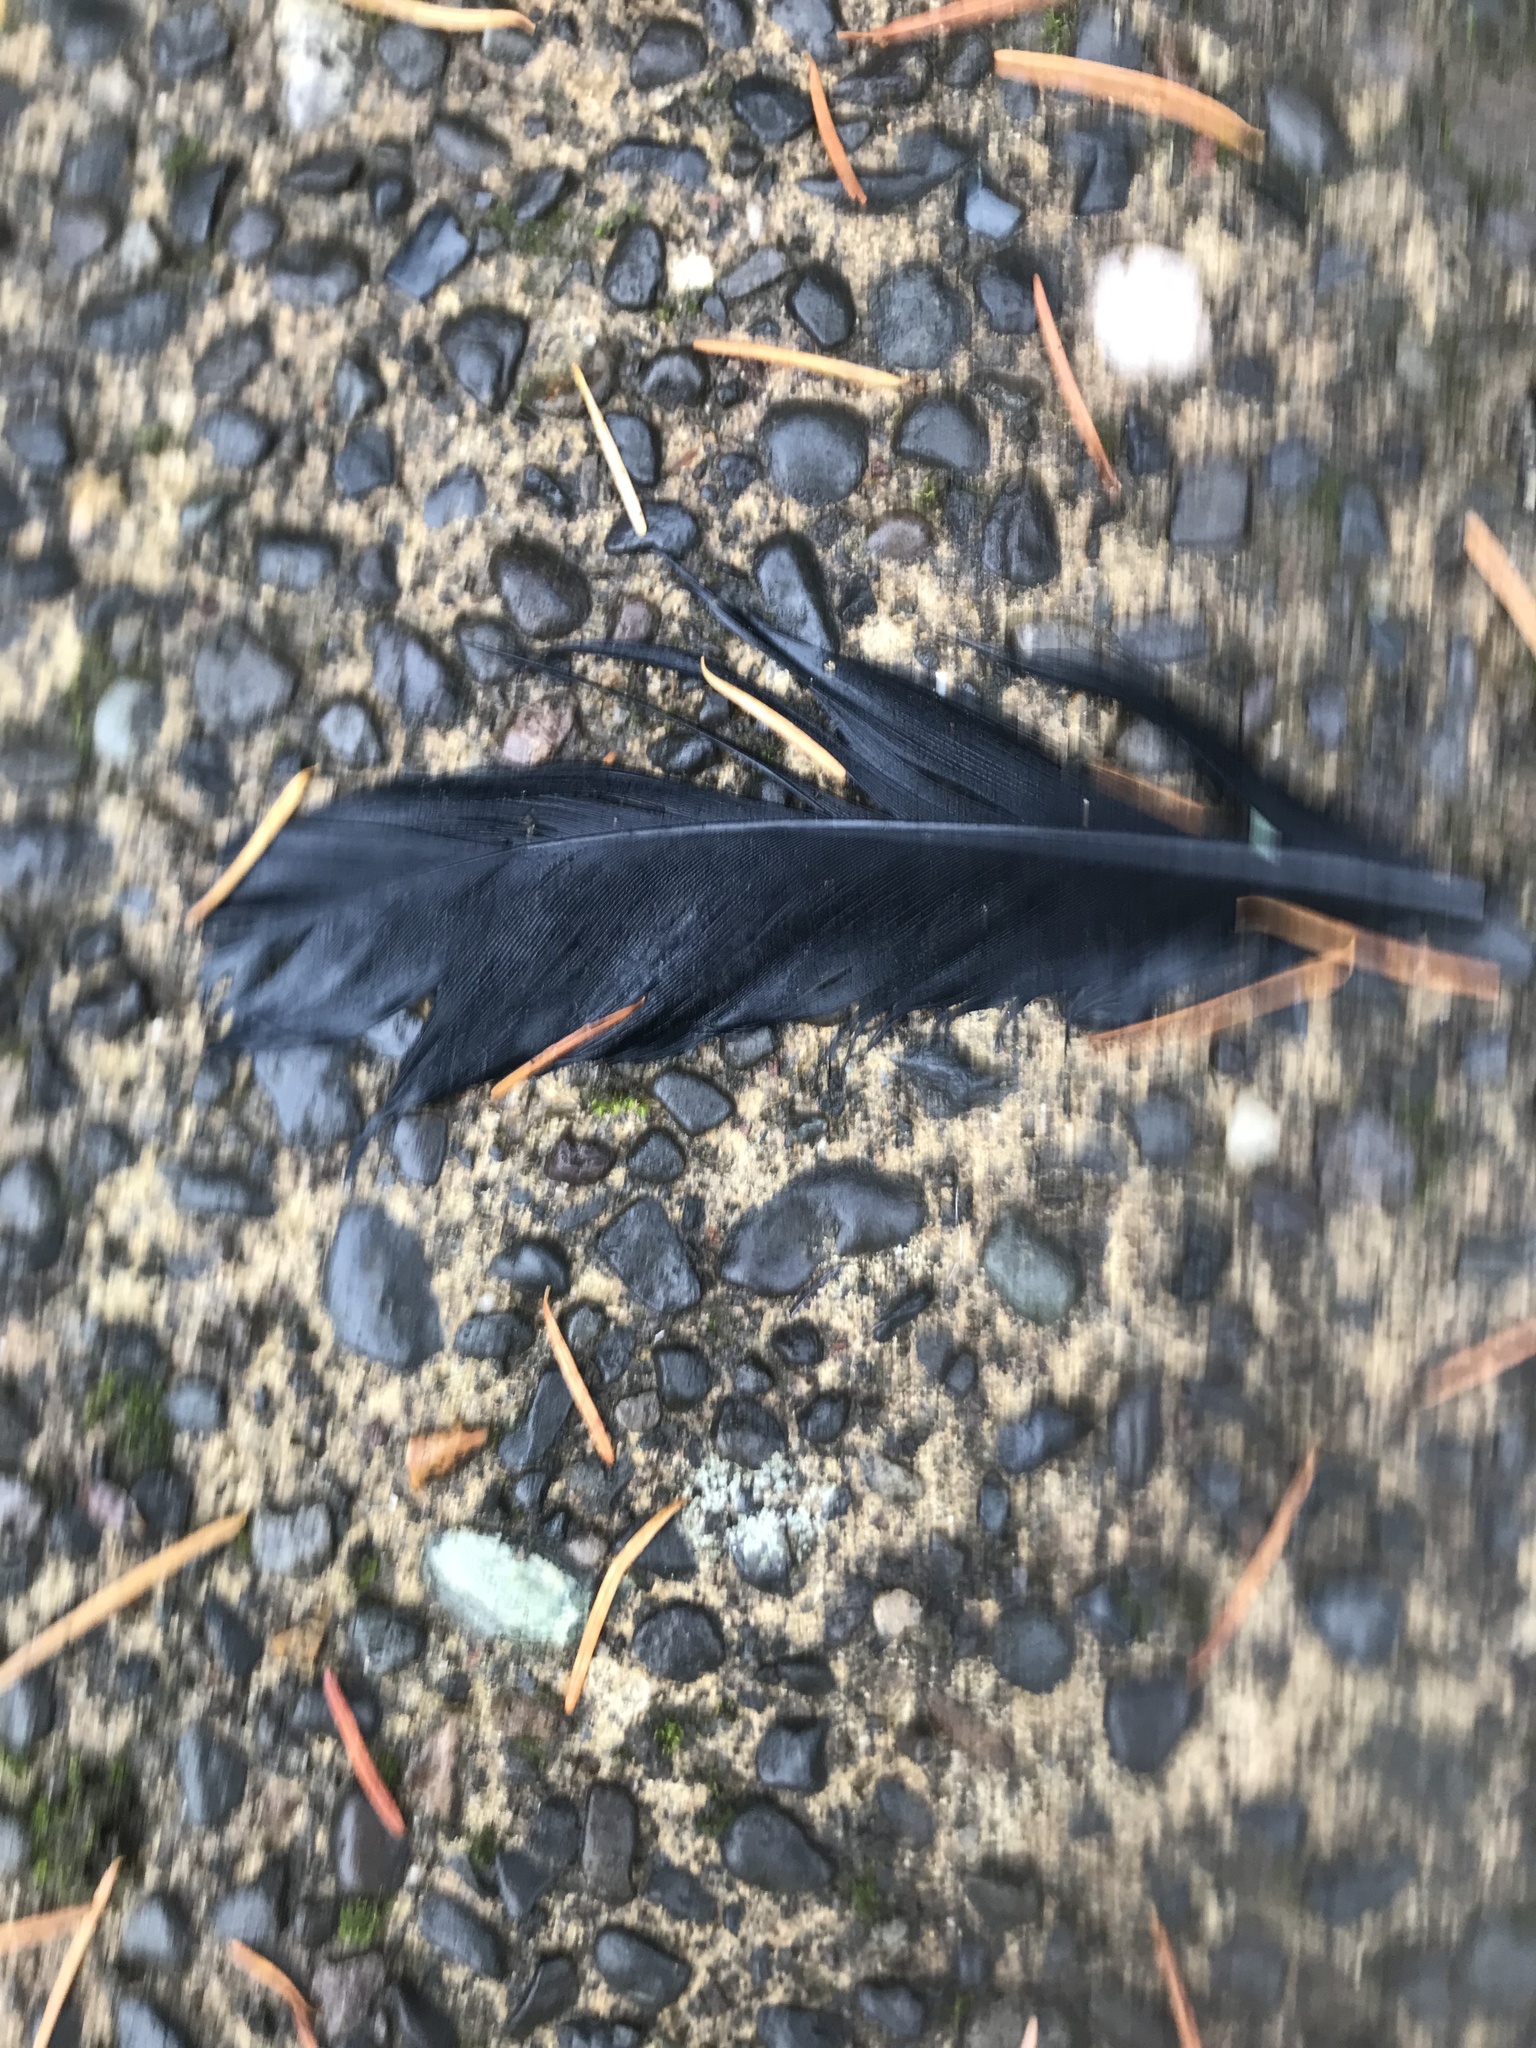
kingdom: Animalia
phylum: Chordata
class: Aves
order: Passeriformes
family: Corvidae
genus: Corvus
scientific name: Corvus brachyrhynchos
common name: American crow
